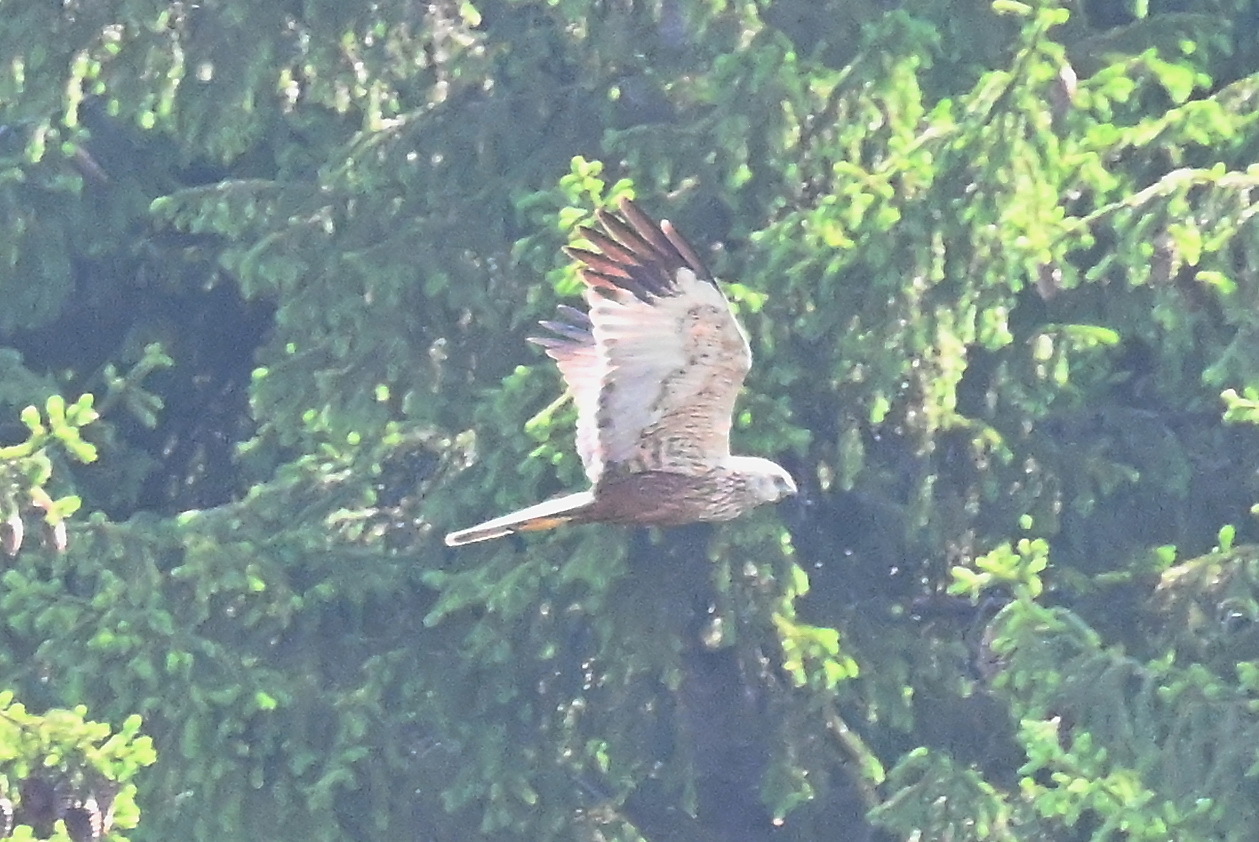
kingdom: Animalia
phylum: Chordata
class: Aves
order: Accipitriformes
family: Accipitridae
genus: Circus
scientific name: Circus aeruginosus
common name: Western marsh harrier
